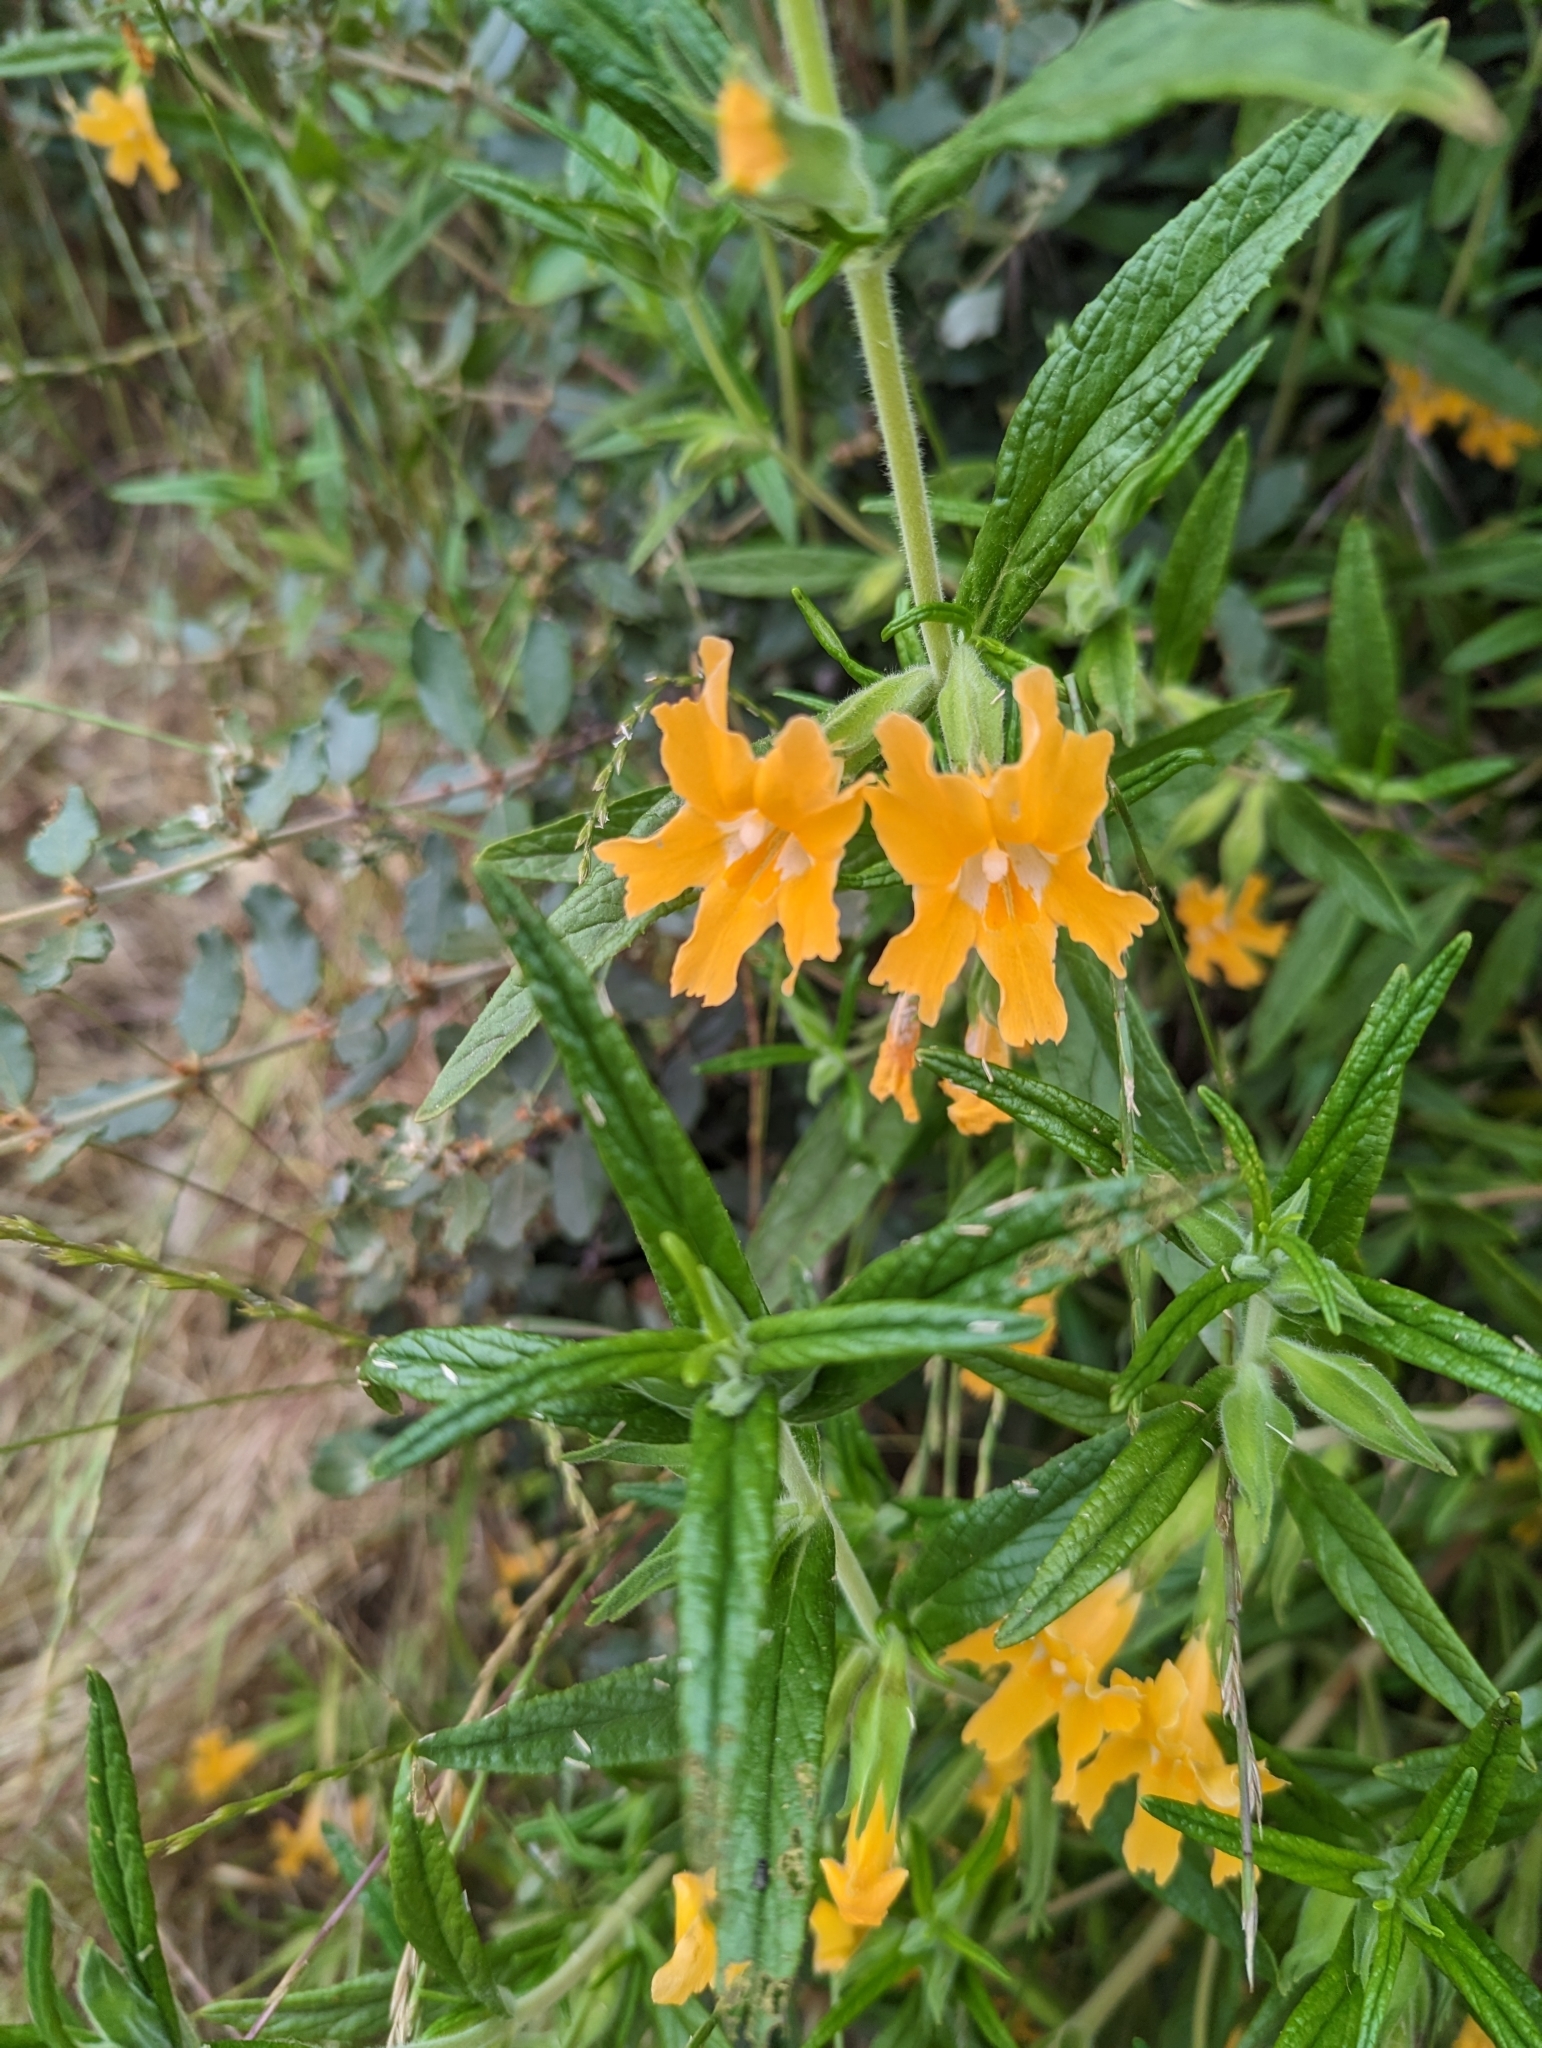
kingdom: Plantae
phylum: Tracheophyta
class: Magnoliopsida
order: Lamiales
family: Phrymaceae
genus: Diplacus
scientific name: Diplacus longiflorus
